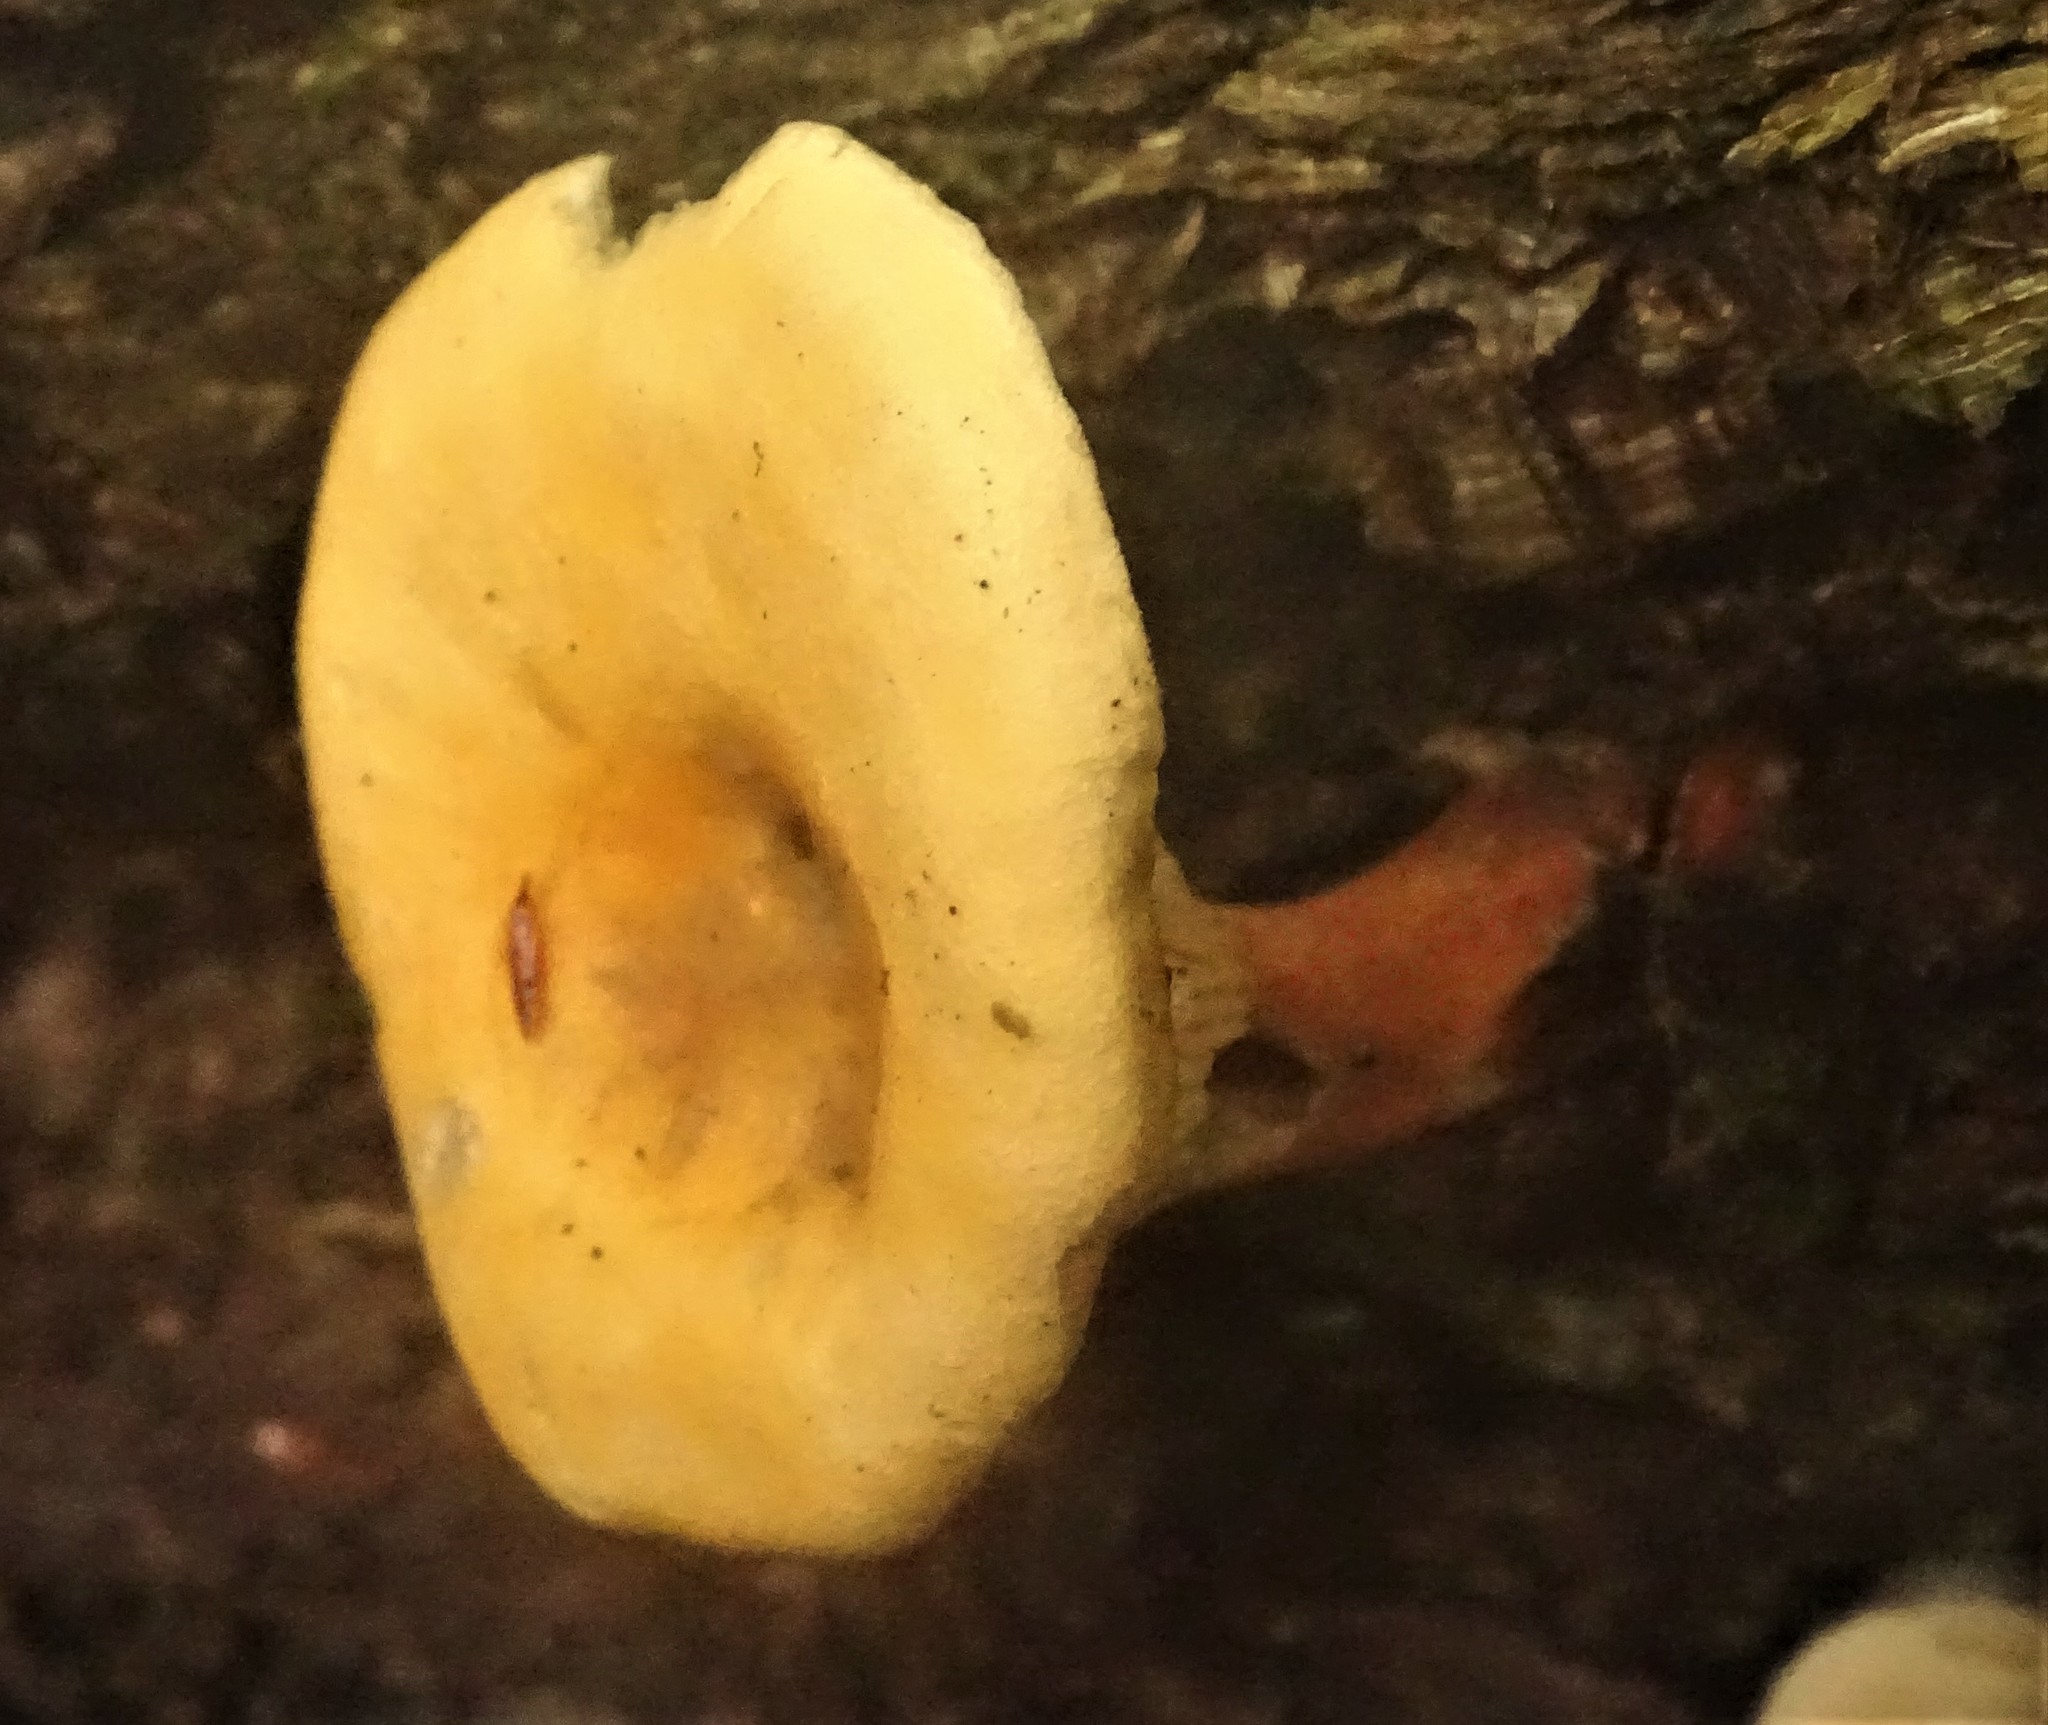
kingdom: Fungi
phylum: Basidiomycota
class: Agaricomycetes
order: Boletales
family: Hygrophoropsidaceae
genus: Hygrophoropsis
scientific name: Hygrophoropsis aurantiaca
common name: False chanterelle
